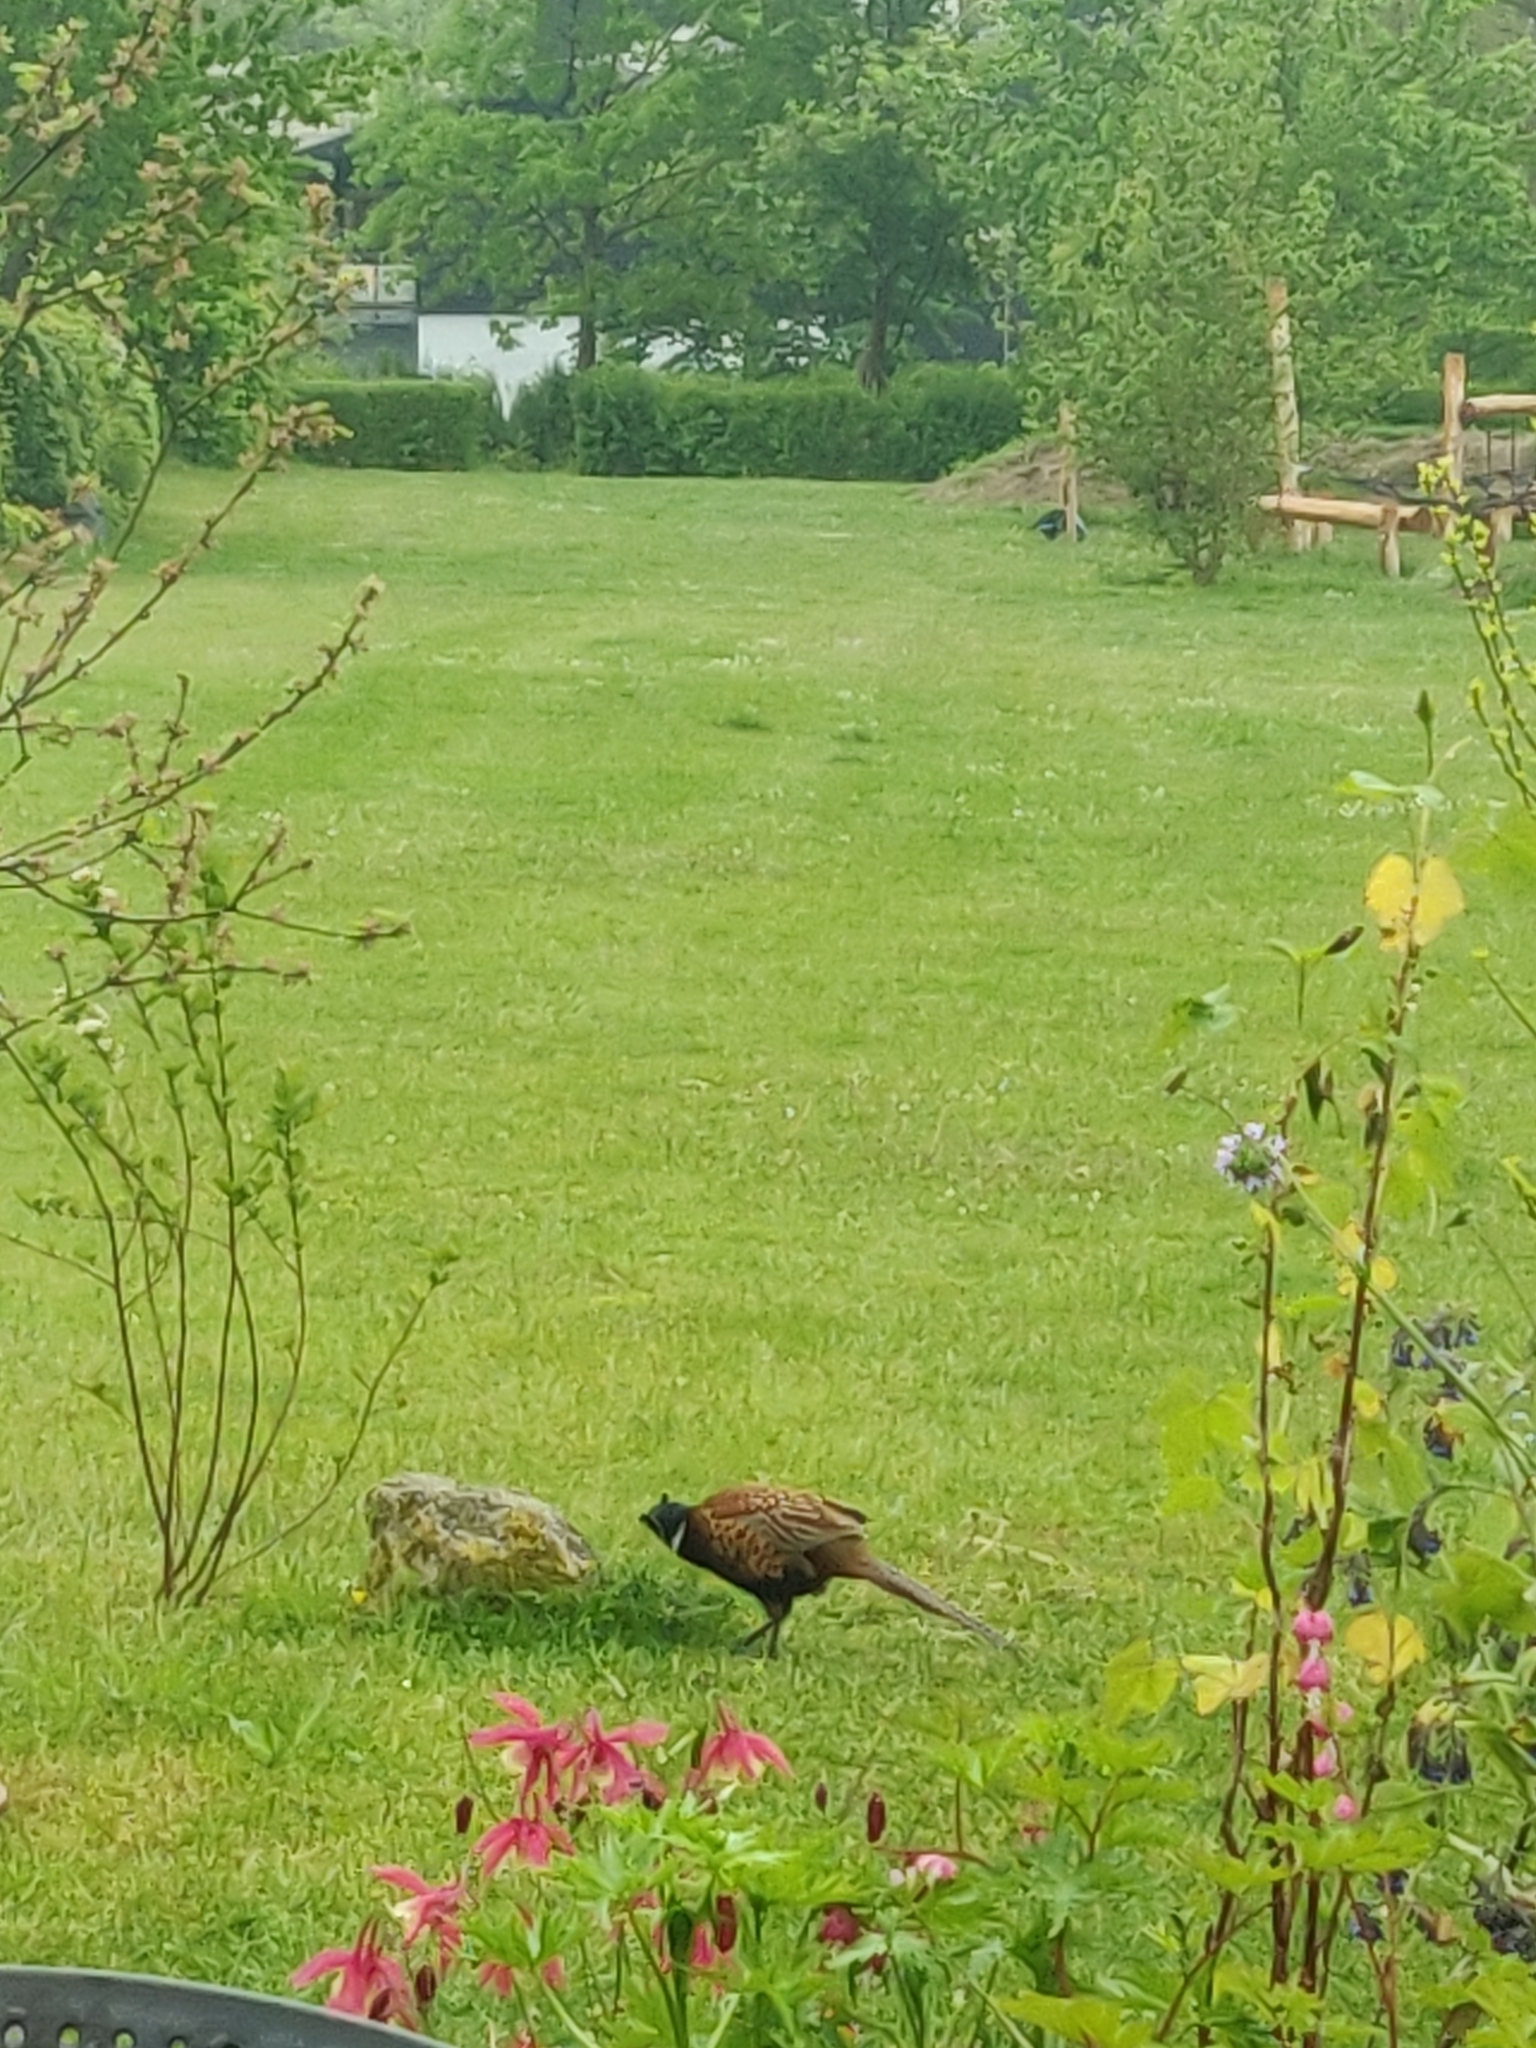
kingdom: Animalia
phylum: Chordata
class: Aves
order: Galliformes
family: Phasianidae
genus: Phasianus
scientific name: Phasianus colchicus
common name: Common pheasant
